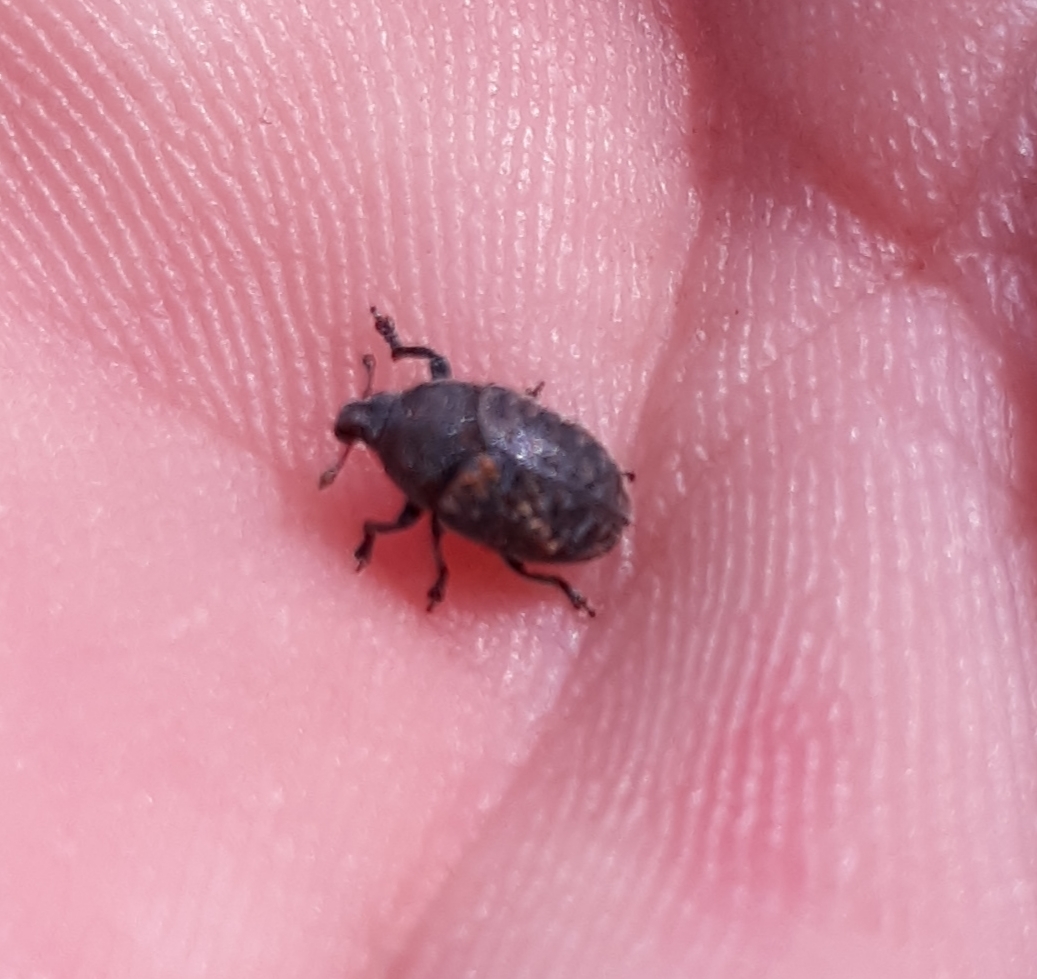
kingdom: Animalia
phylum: Arthropoda
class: Insecta
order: Coleoptera
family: Curculionidae
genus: Larinus
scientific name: Larinus obtusus
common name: Weevil
